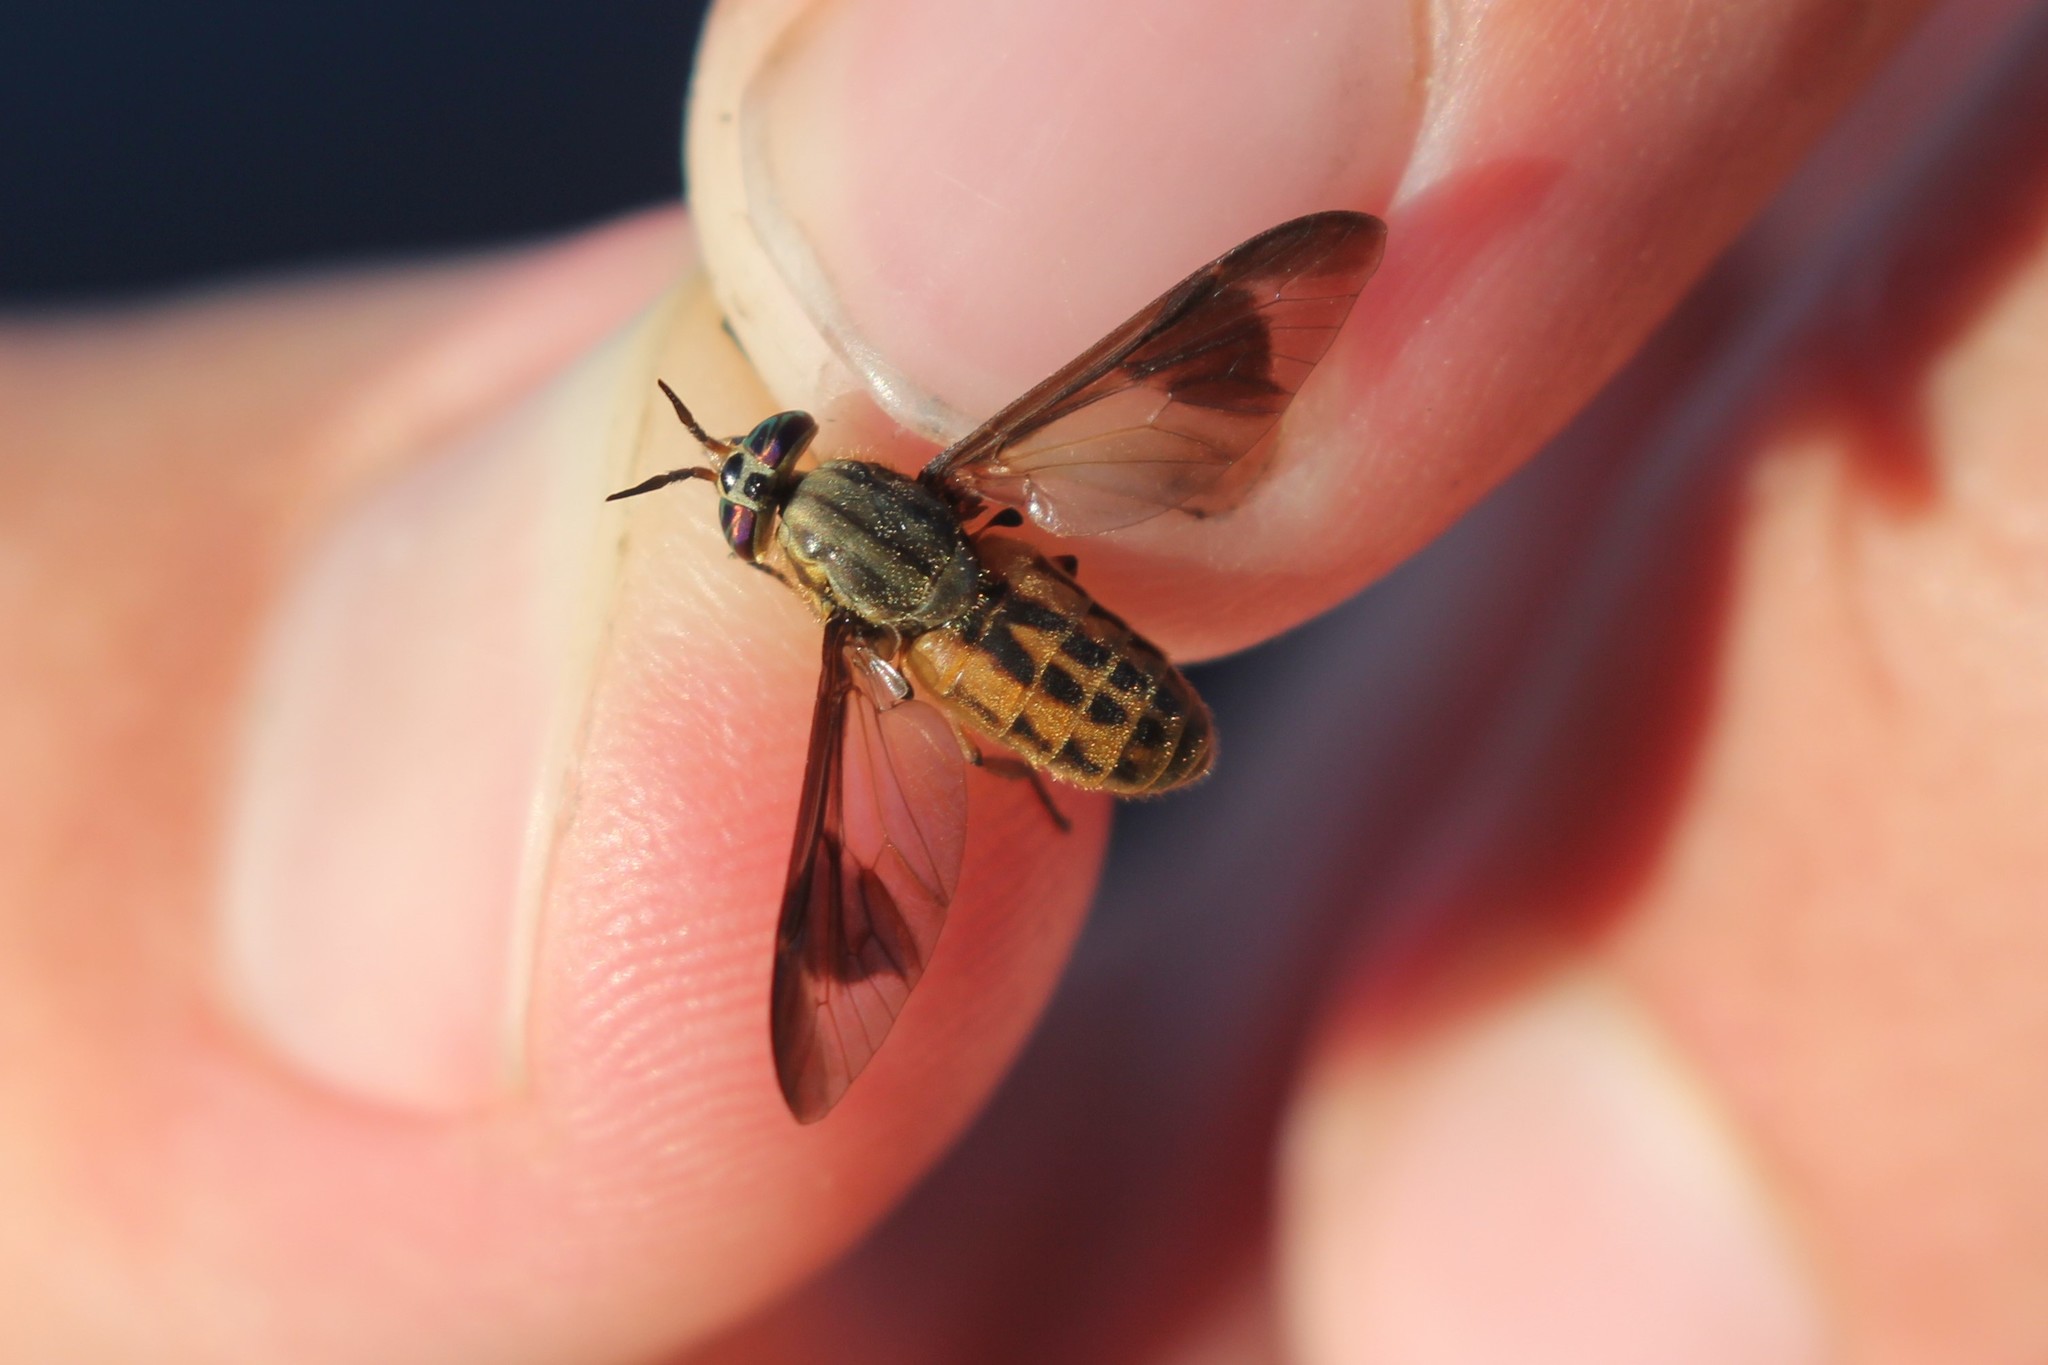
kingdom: Animalia
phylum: Arthropoda
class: Insecta
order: Diptera
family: Tabanidae
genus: Chrysops
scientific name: Chrysops striatus
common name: Striated deer fly
